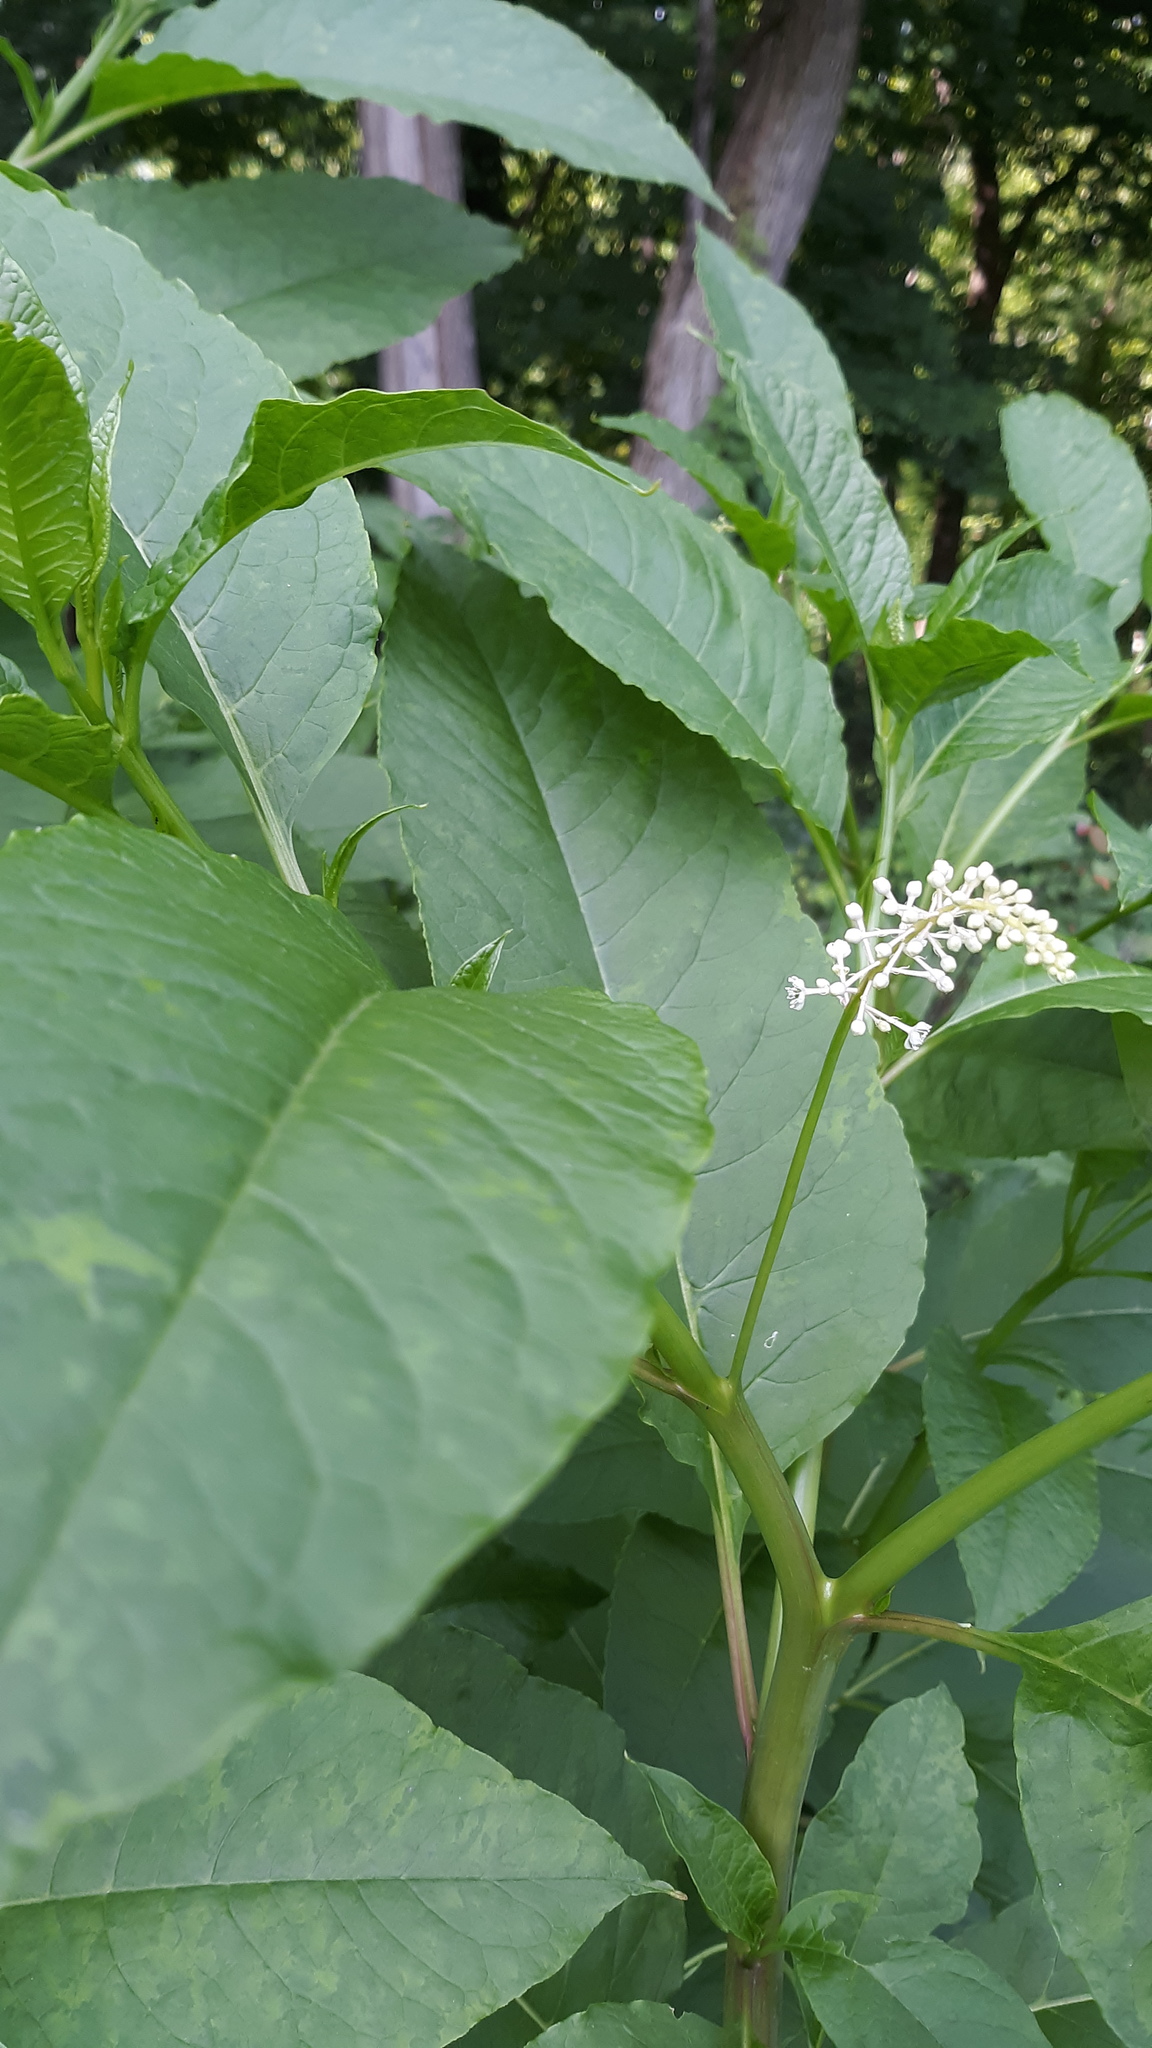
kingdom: Plantae
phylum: Tracheophyta
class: Magnoliopsida
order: Caryophyllales
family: Phytolaccaceae
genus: Phytolacca
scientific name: Phytolacca americana
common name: American pokeweed
